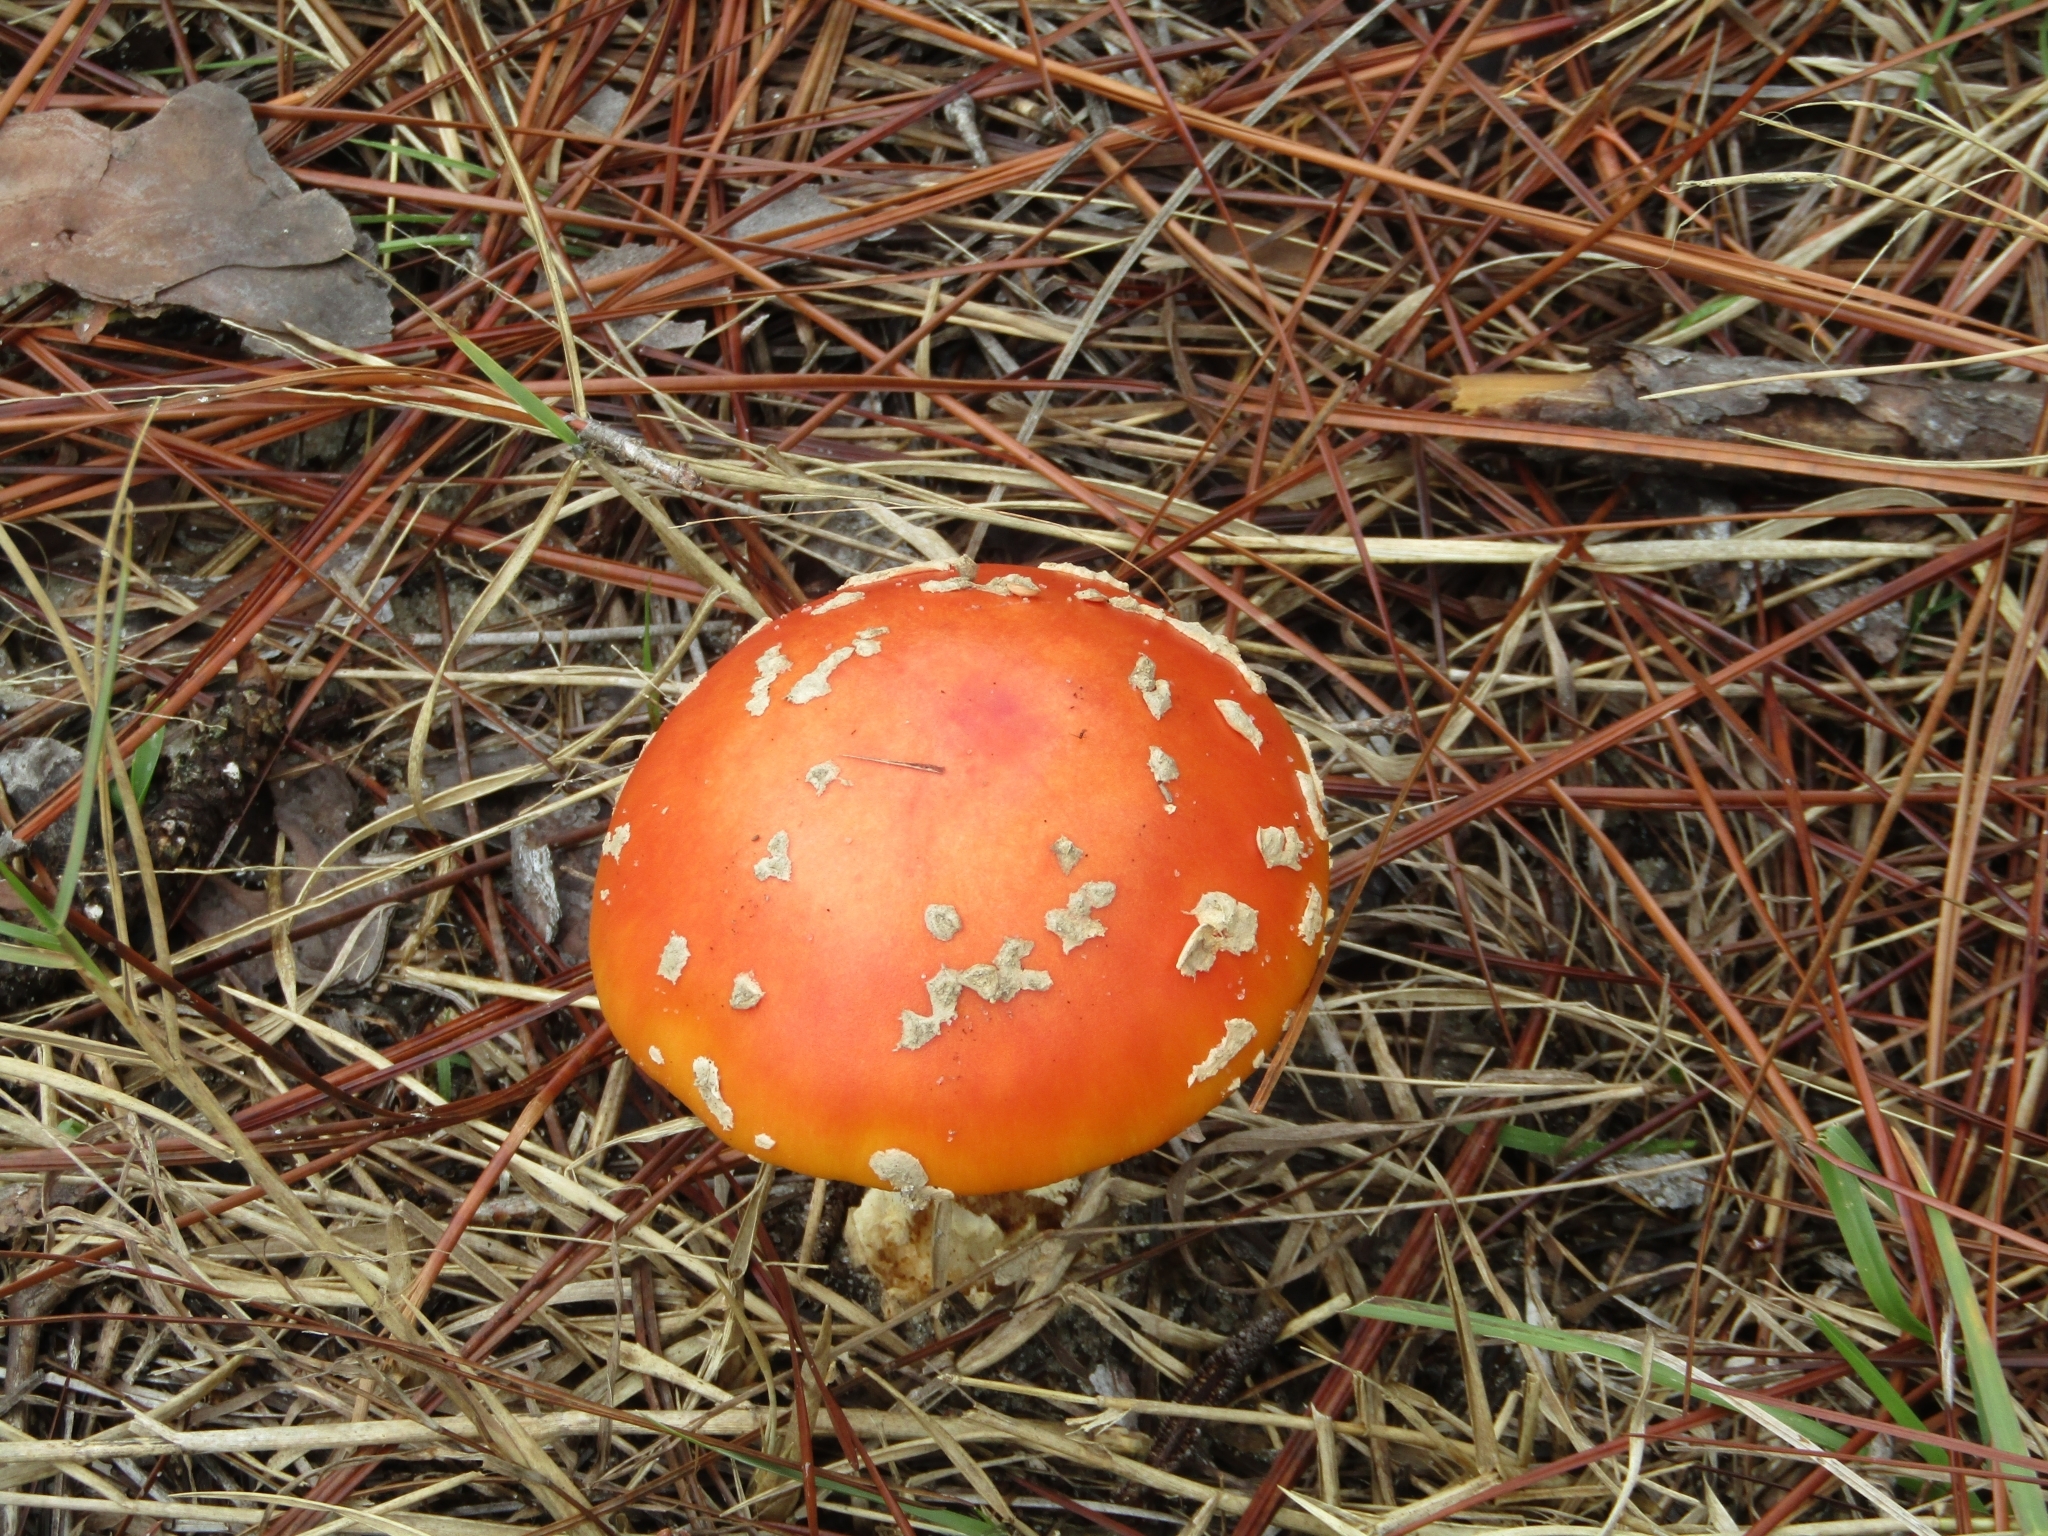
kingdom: Fungi
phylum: Basidiomycota
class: Agaricomycetes
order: Agaricales
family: Amanitaceae
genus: Amanita
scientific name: Amanita persicina
